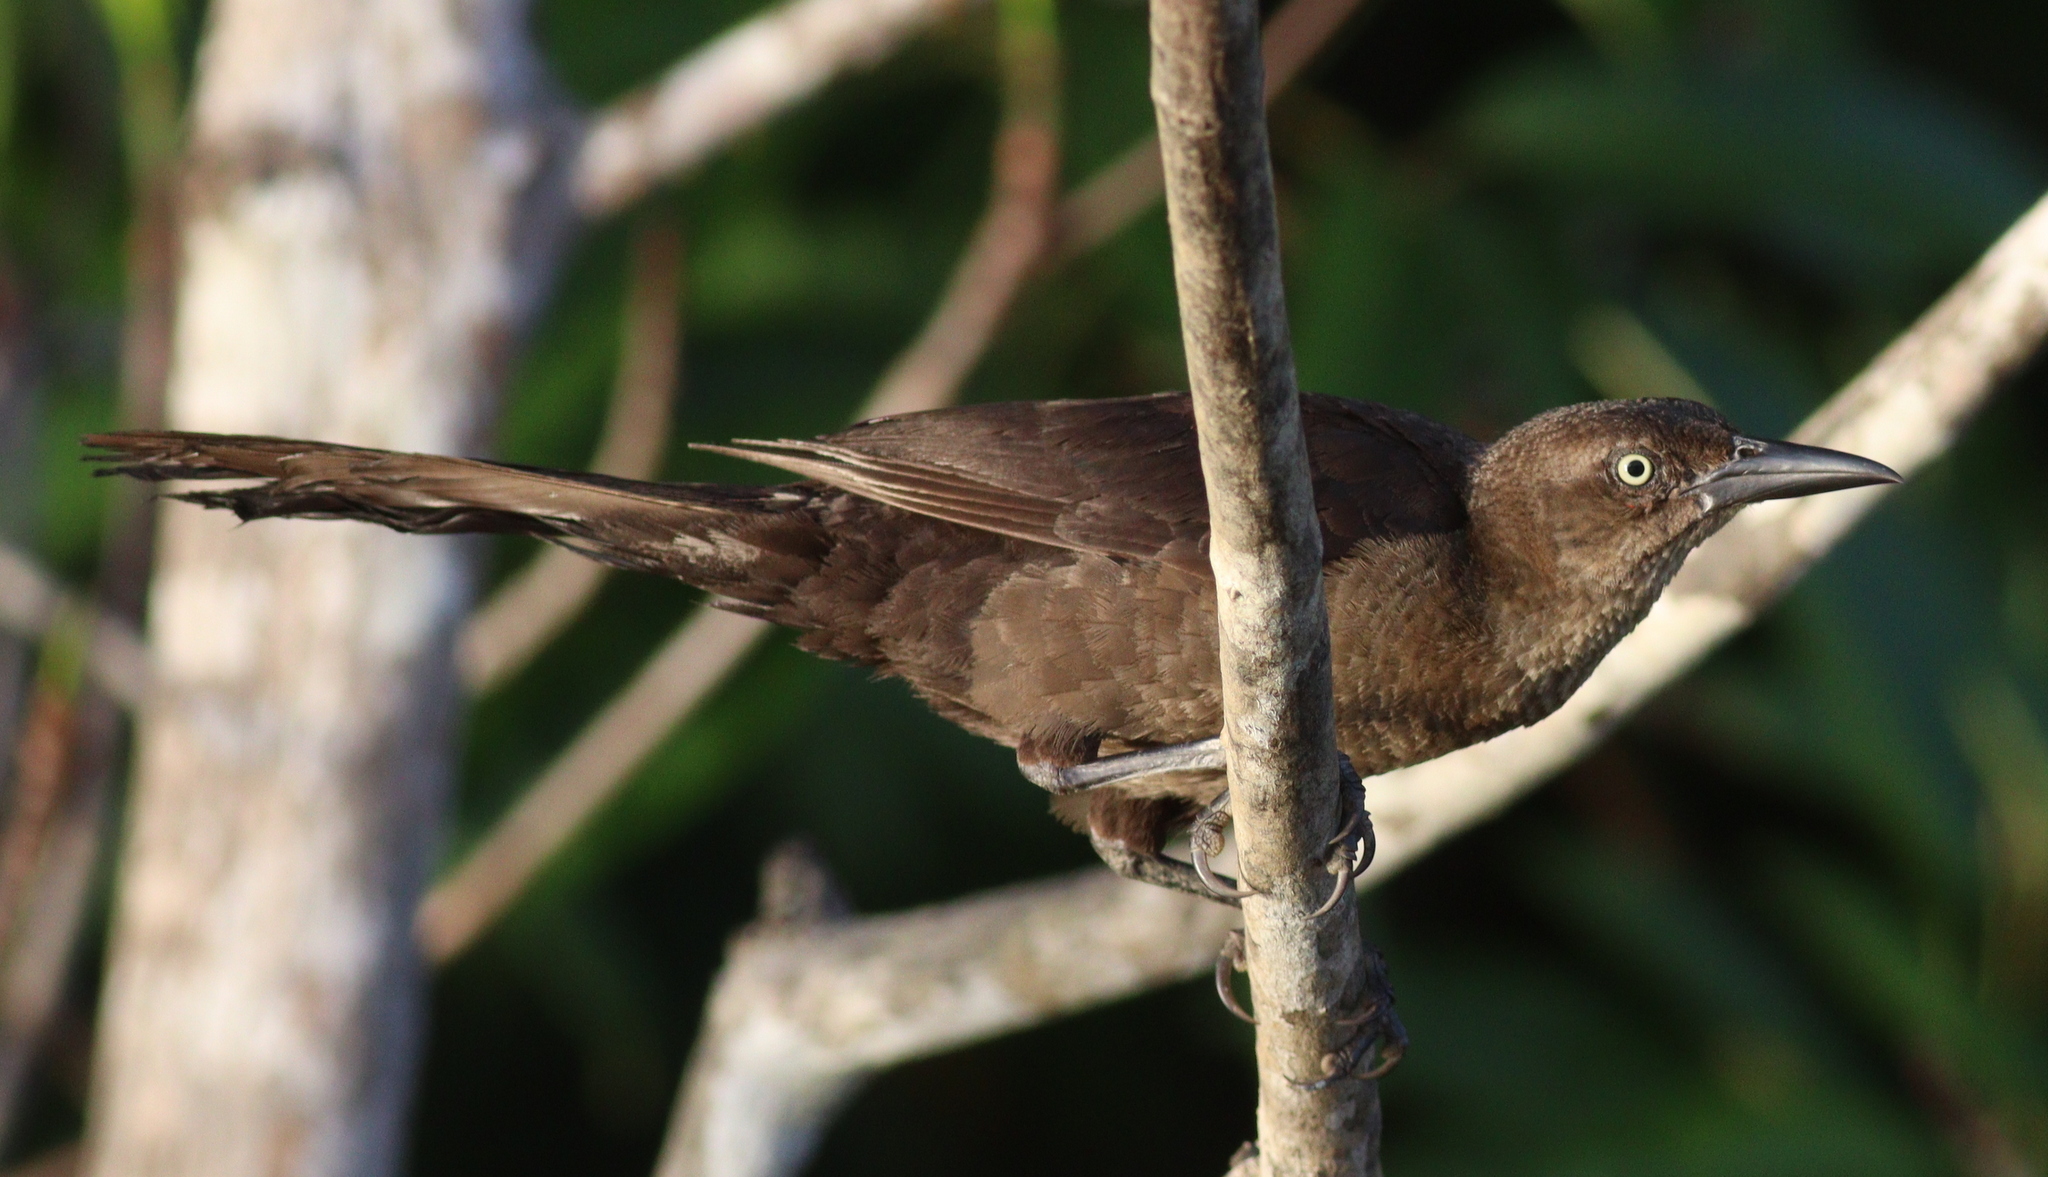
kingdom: Animalia
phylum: Chordata
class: Aves
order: Passeriformes
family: Icteridae
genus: Quiscalus
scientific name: Quiscalus mexicanus
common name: Great-tailed grackle
